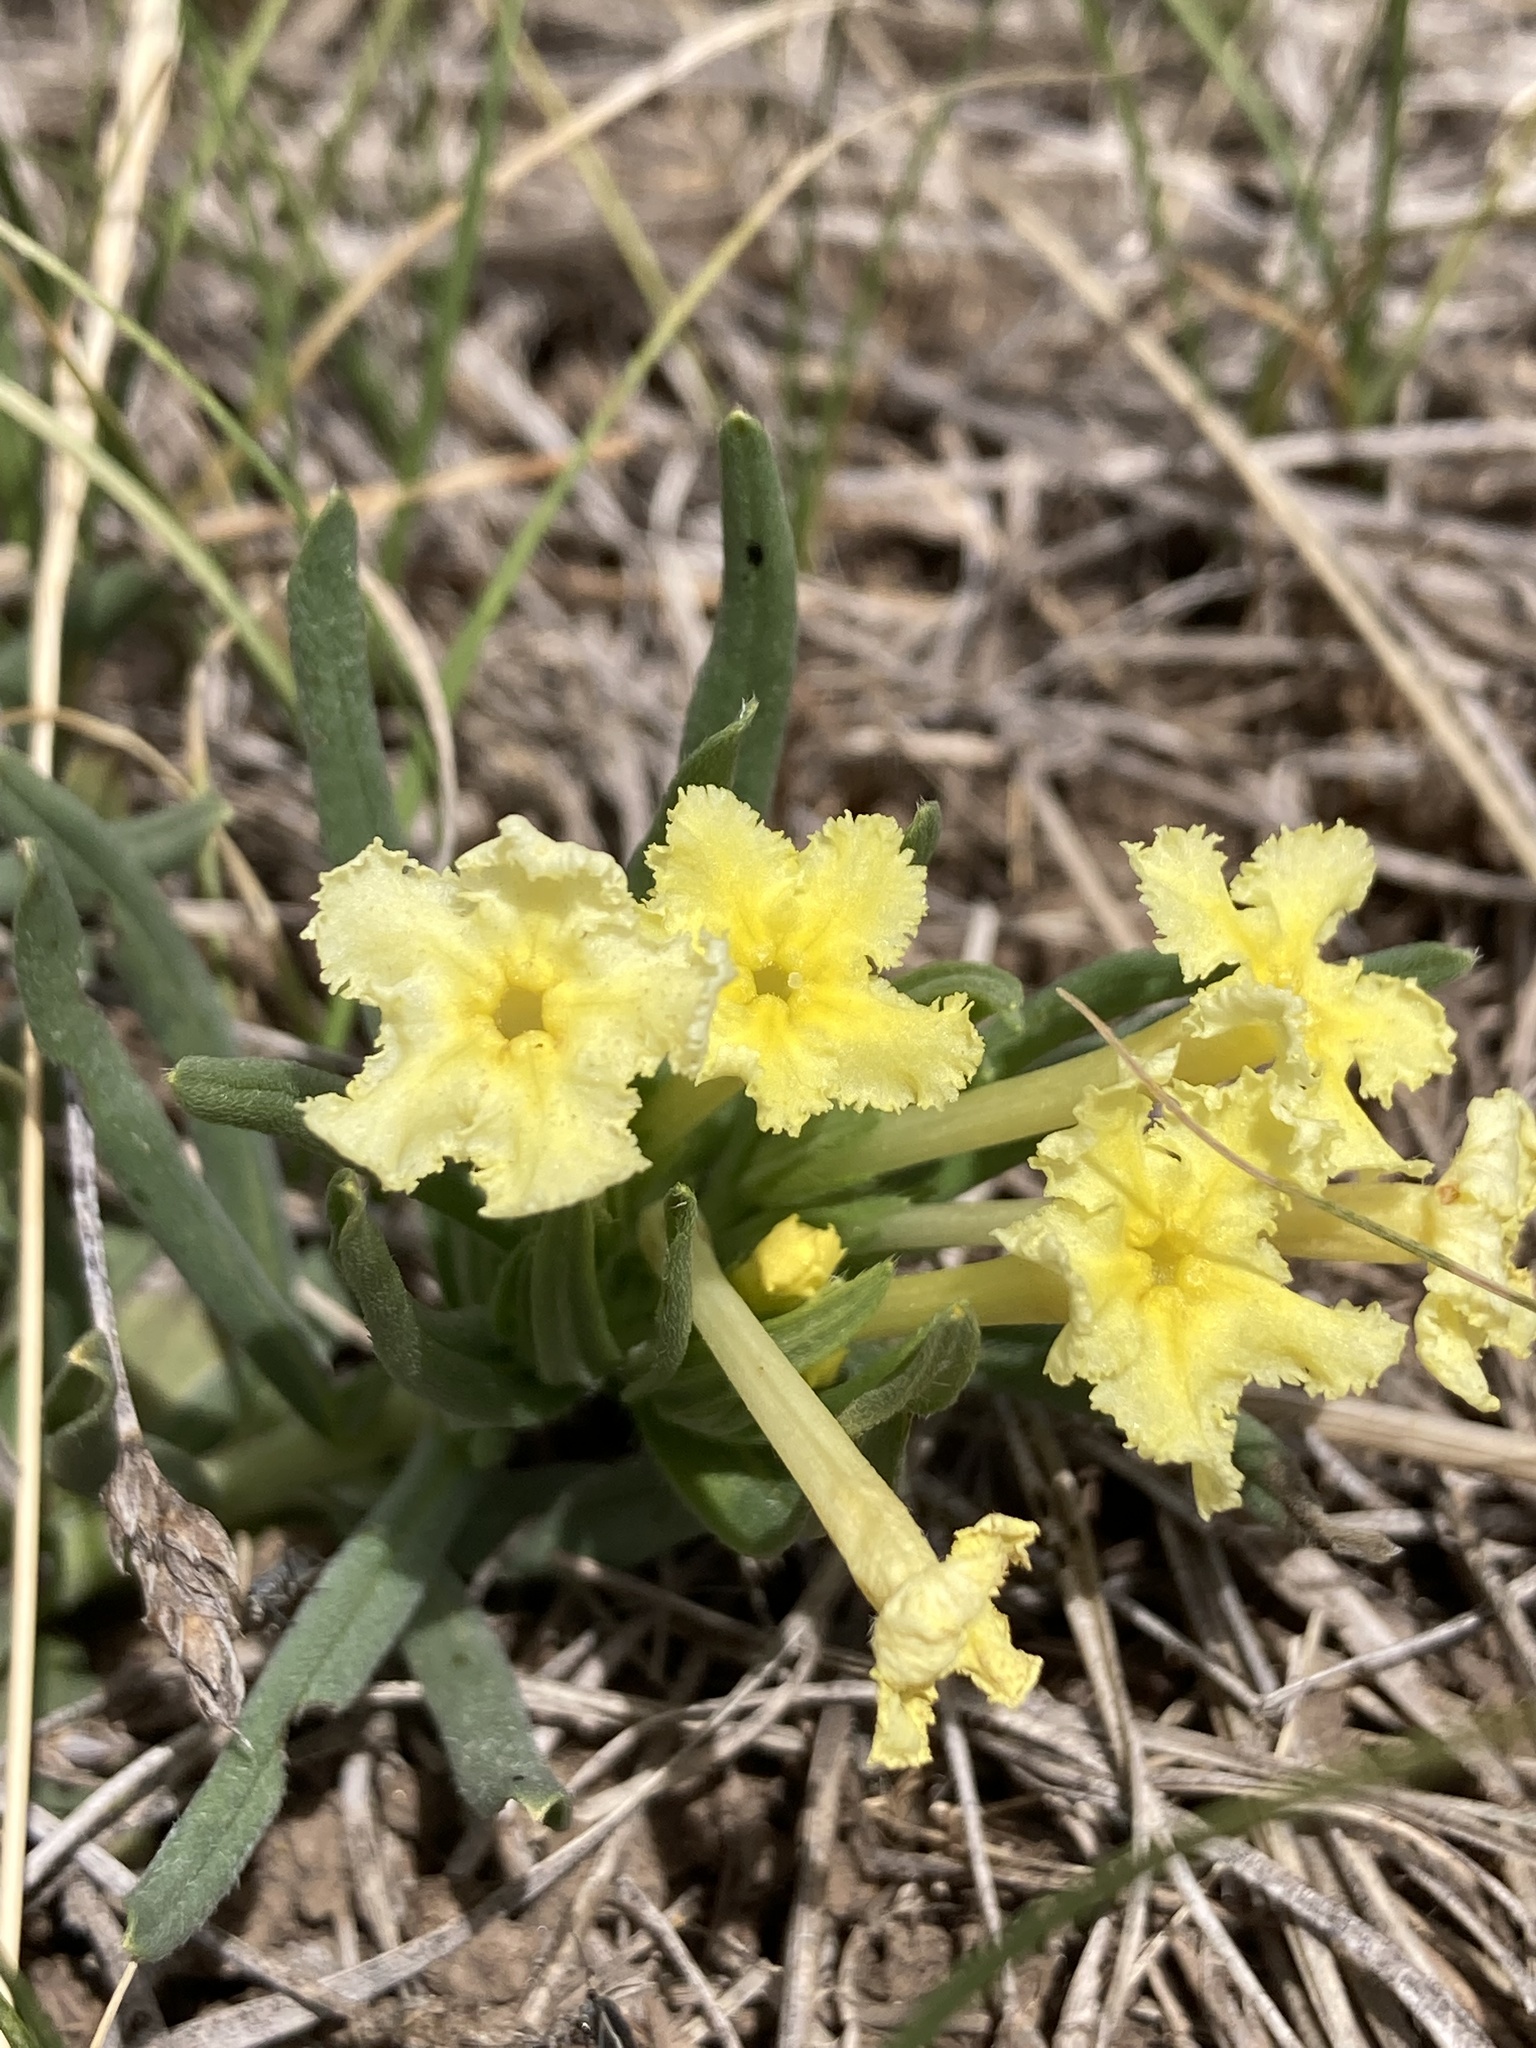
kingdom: Plantae
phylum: Tracheophyta
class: Magnoliopsida
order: Boraginales
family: Boraginaceae
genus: Lithospermum
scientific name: Lithospermum incisum
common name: Fringed gromwell
